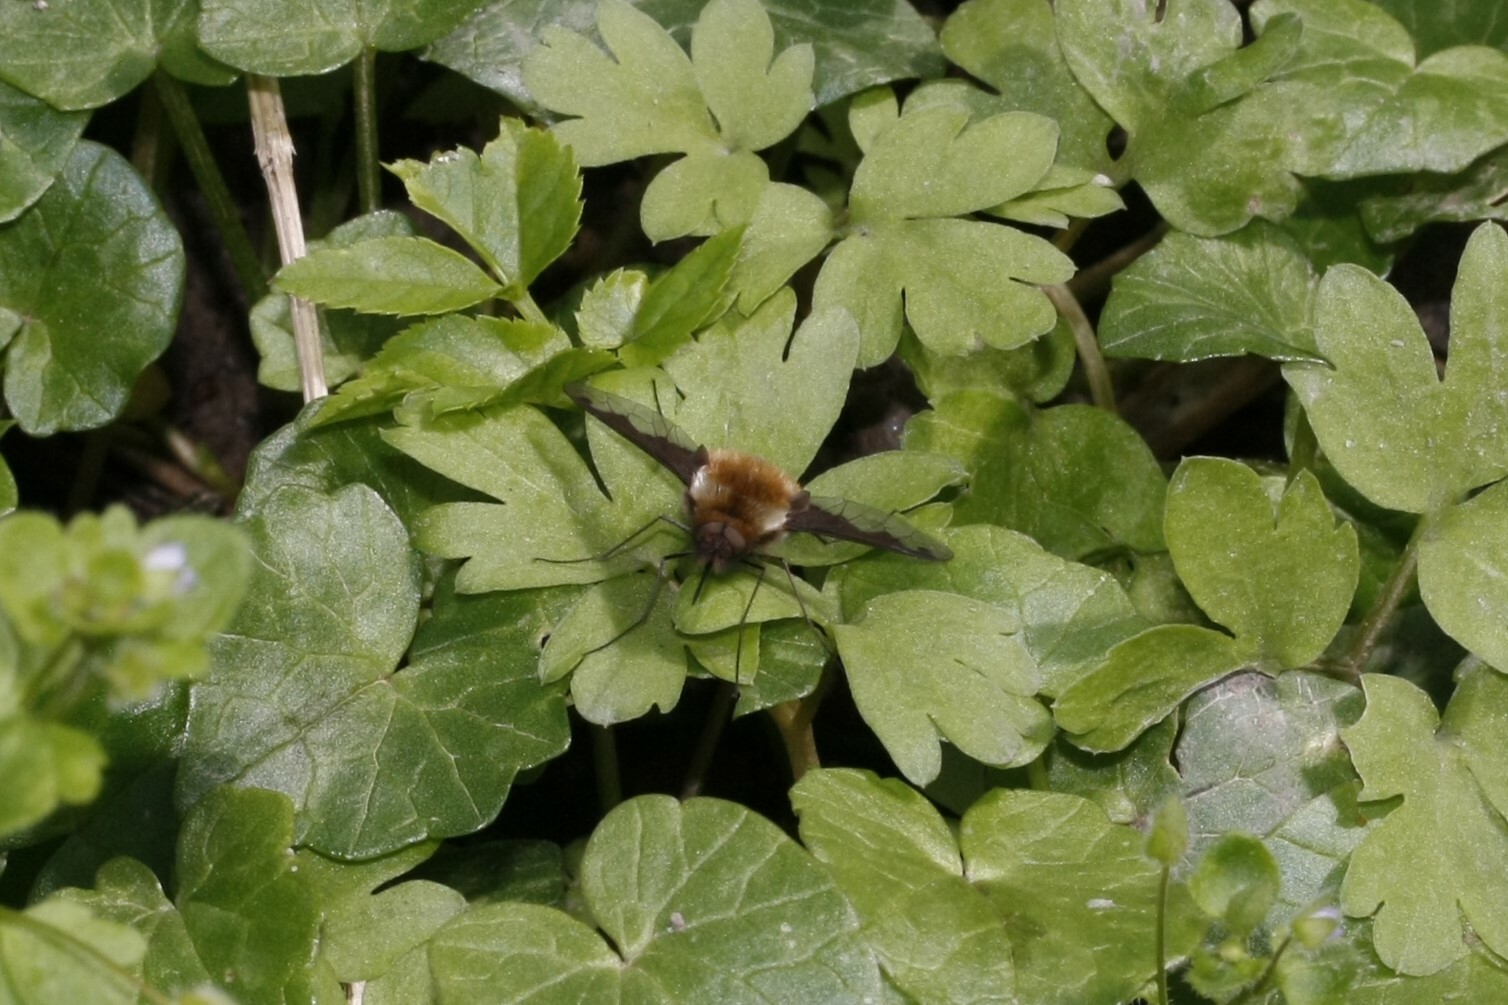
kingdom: Animalia
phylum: Arthropoda
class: Insecta
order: Diptera
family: Bombyliidae
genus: Bombylius
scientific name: Bombylius major
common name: Bee fly
